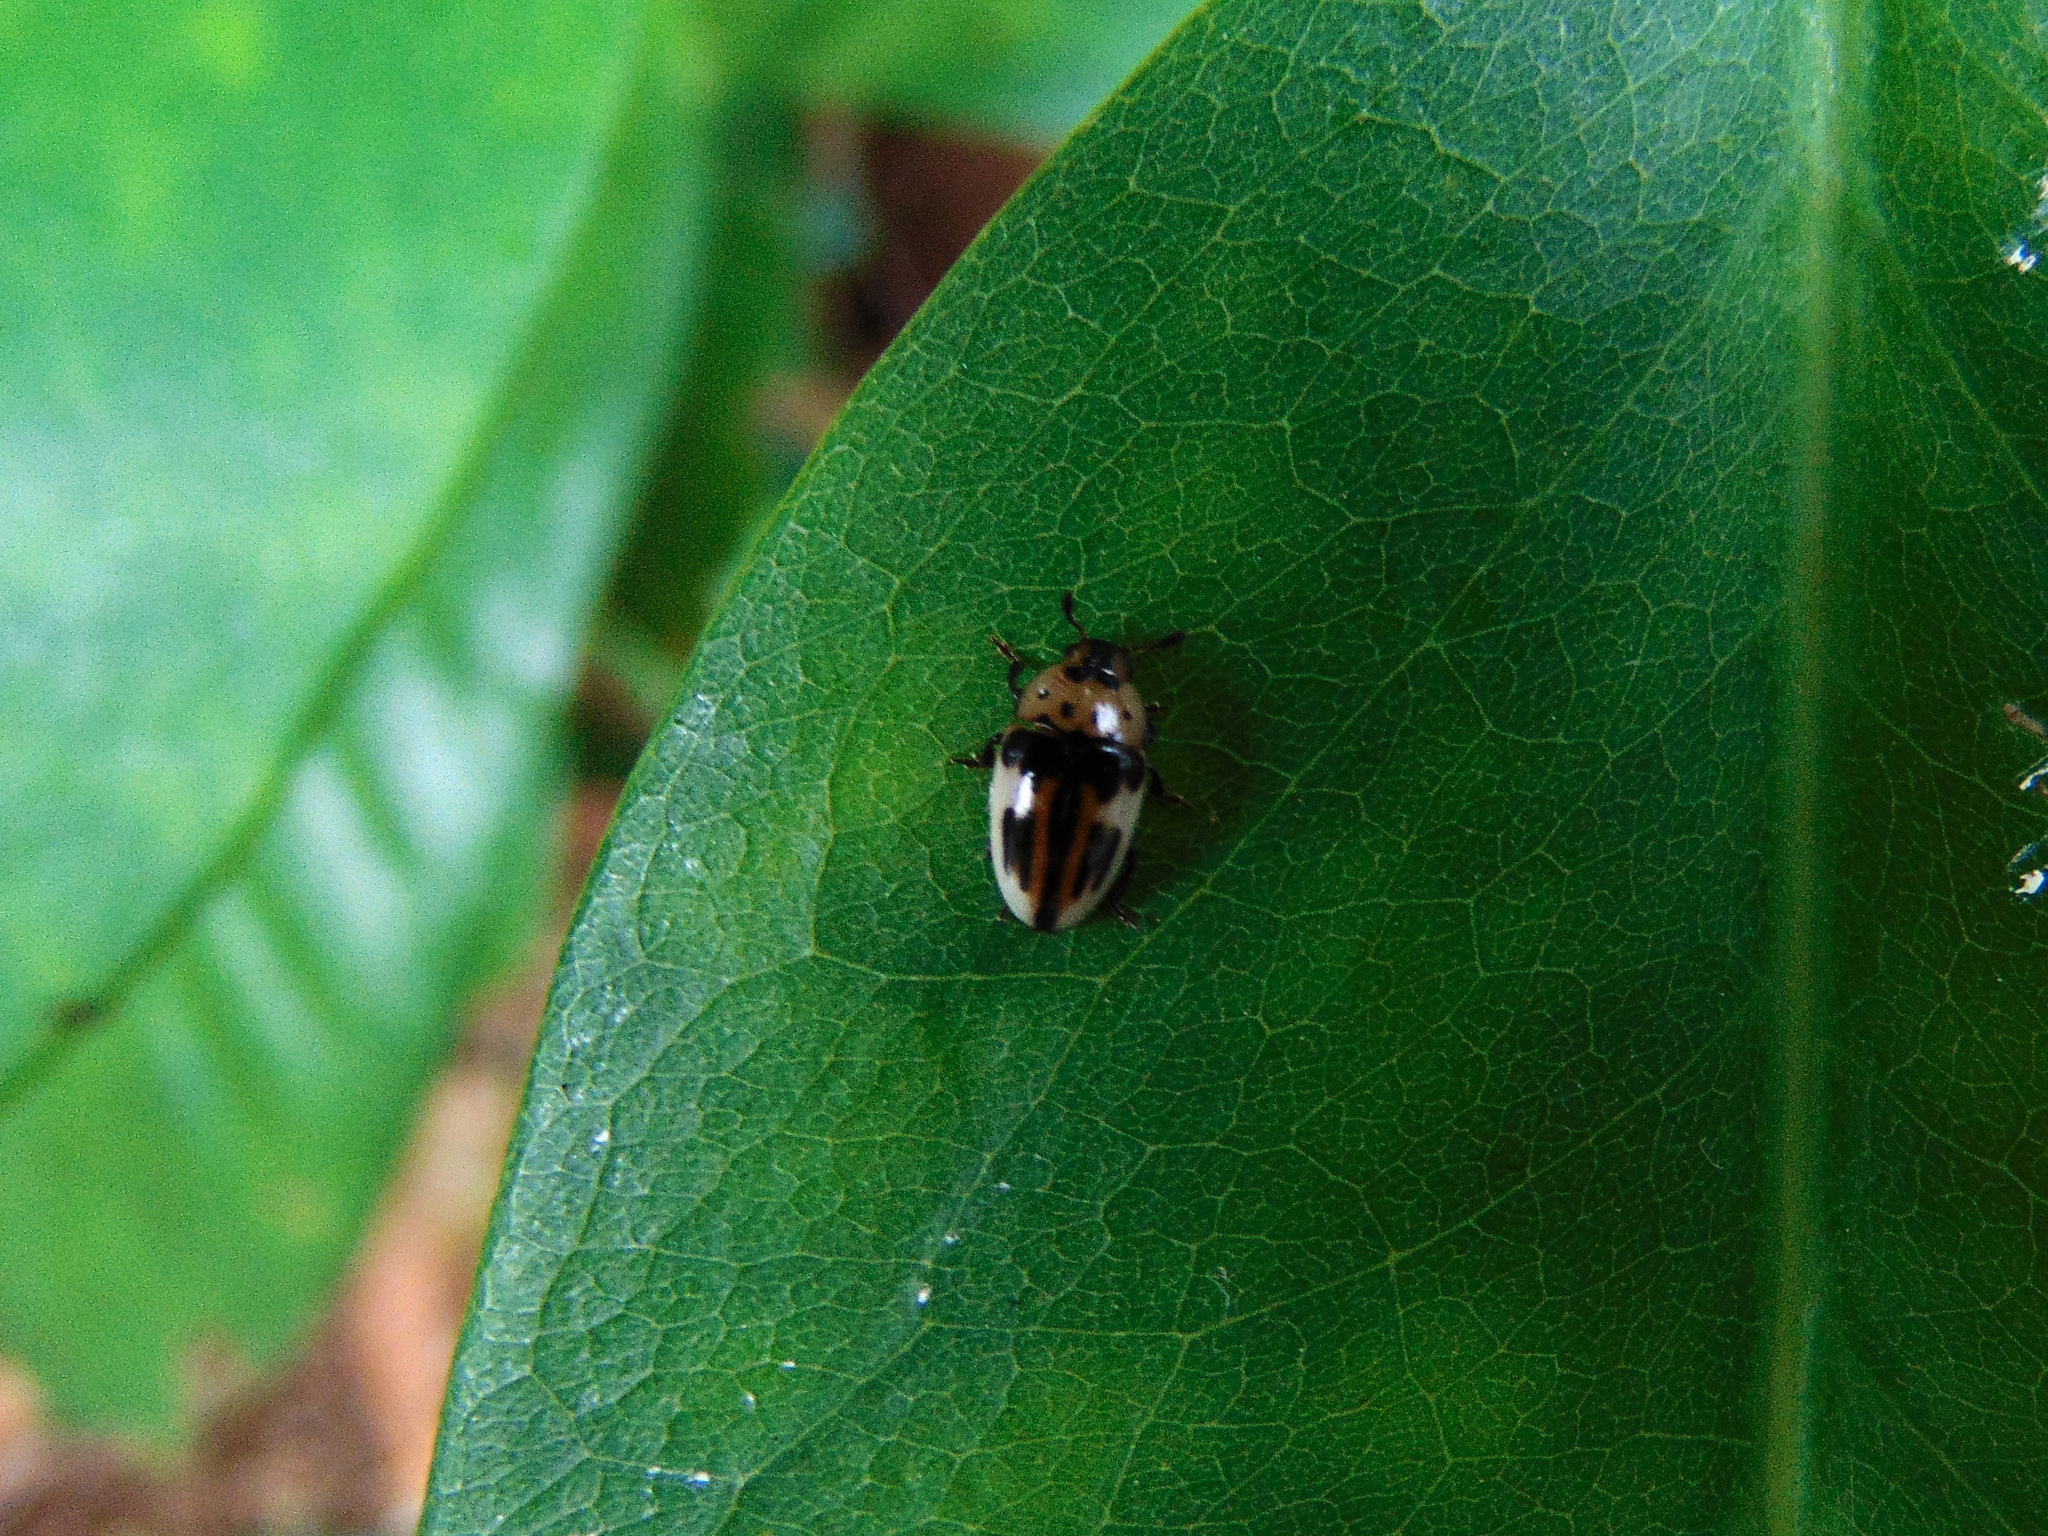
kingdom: Animalia
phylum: Arthropoda
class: Insecta
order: Coleoptera
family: Erotylidae
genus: Mycotretus
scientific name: Mycotretus ornatus
